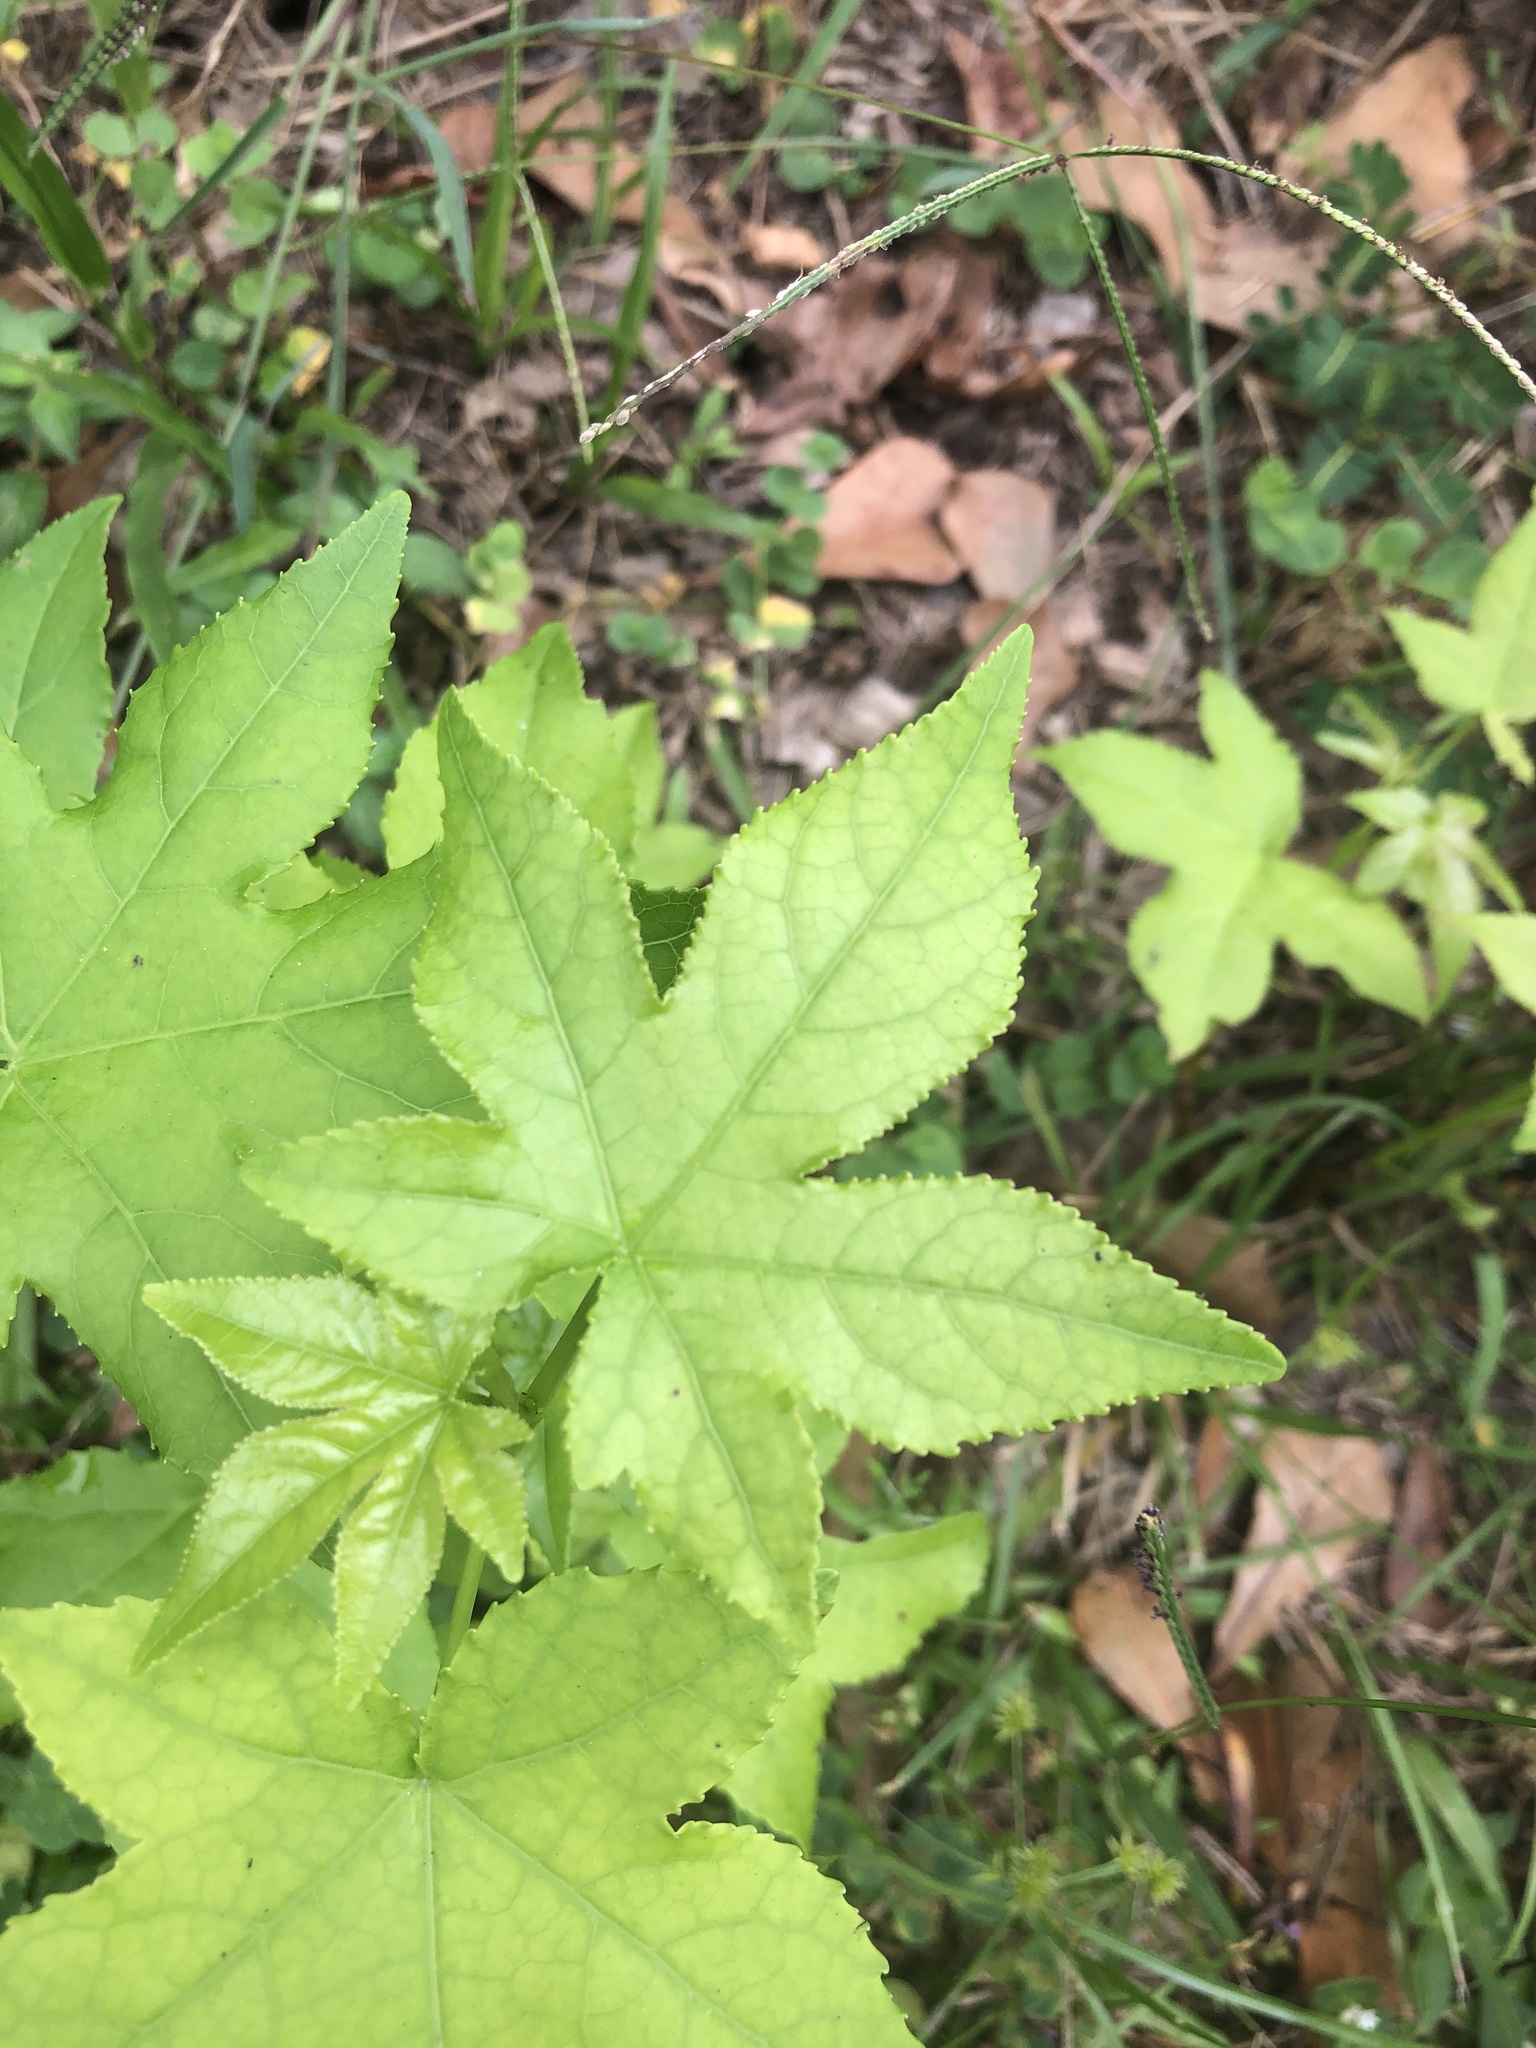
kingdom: Plantae
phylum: Tracheophyta
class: Magnoliopsida
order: Saxifragales
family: Altingiaceae
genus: Liquidambar
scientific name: Liquidambar styraciflua
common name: Sweet gum
